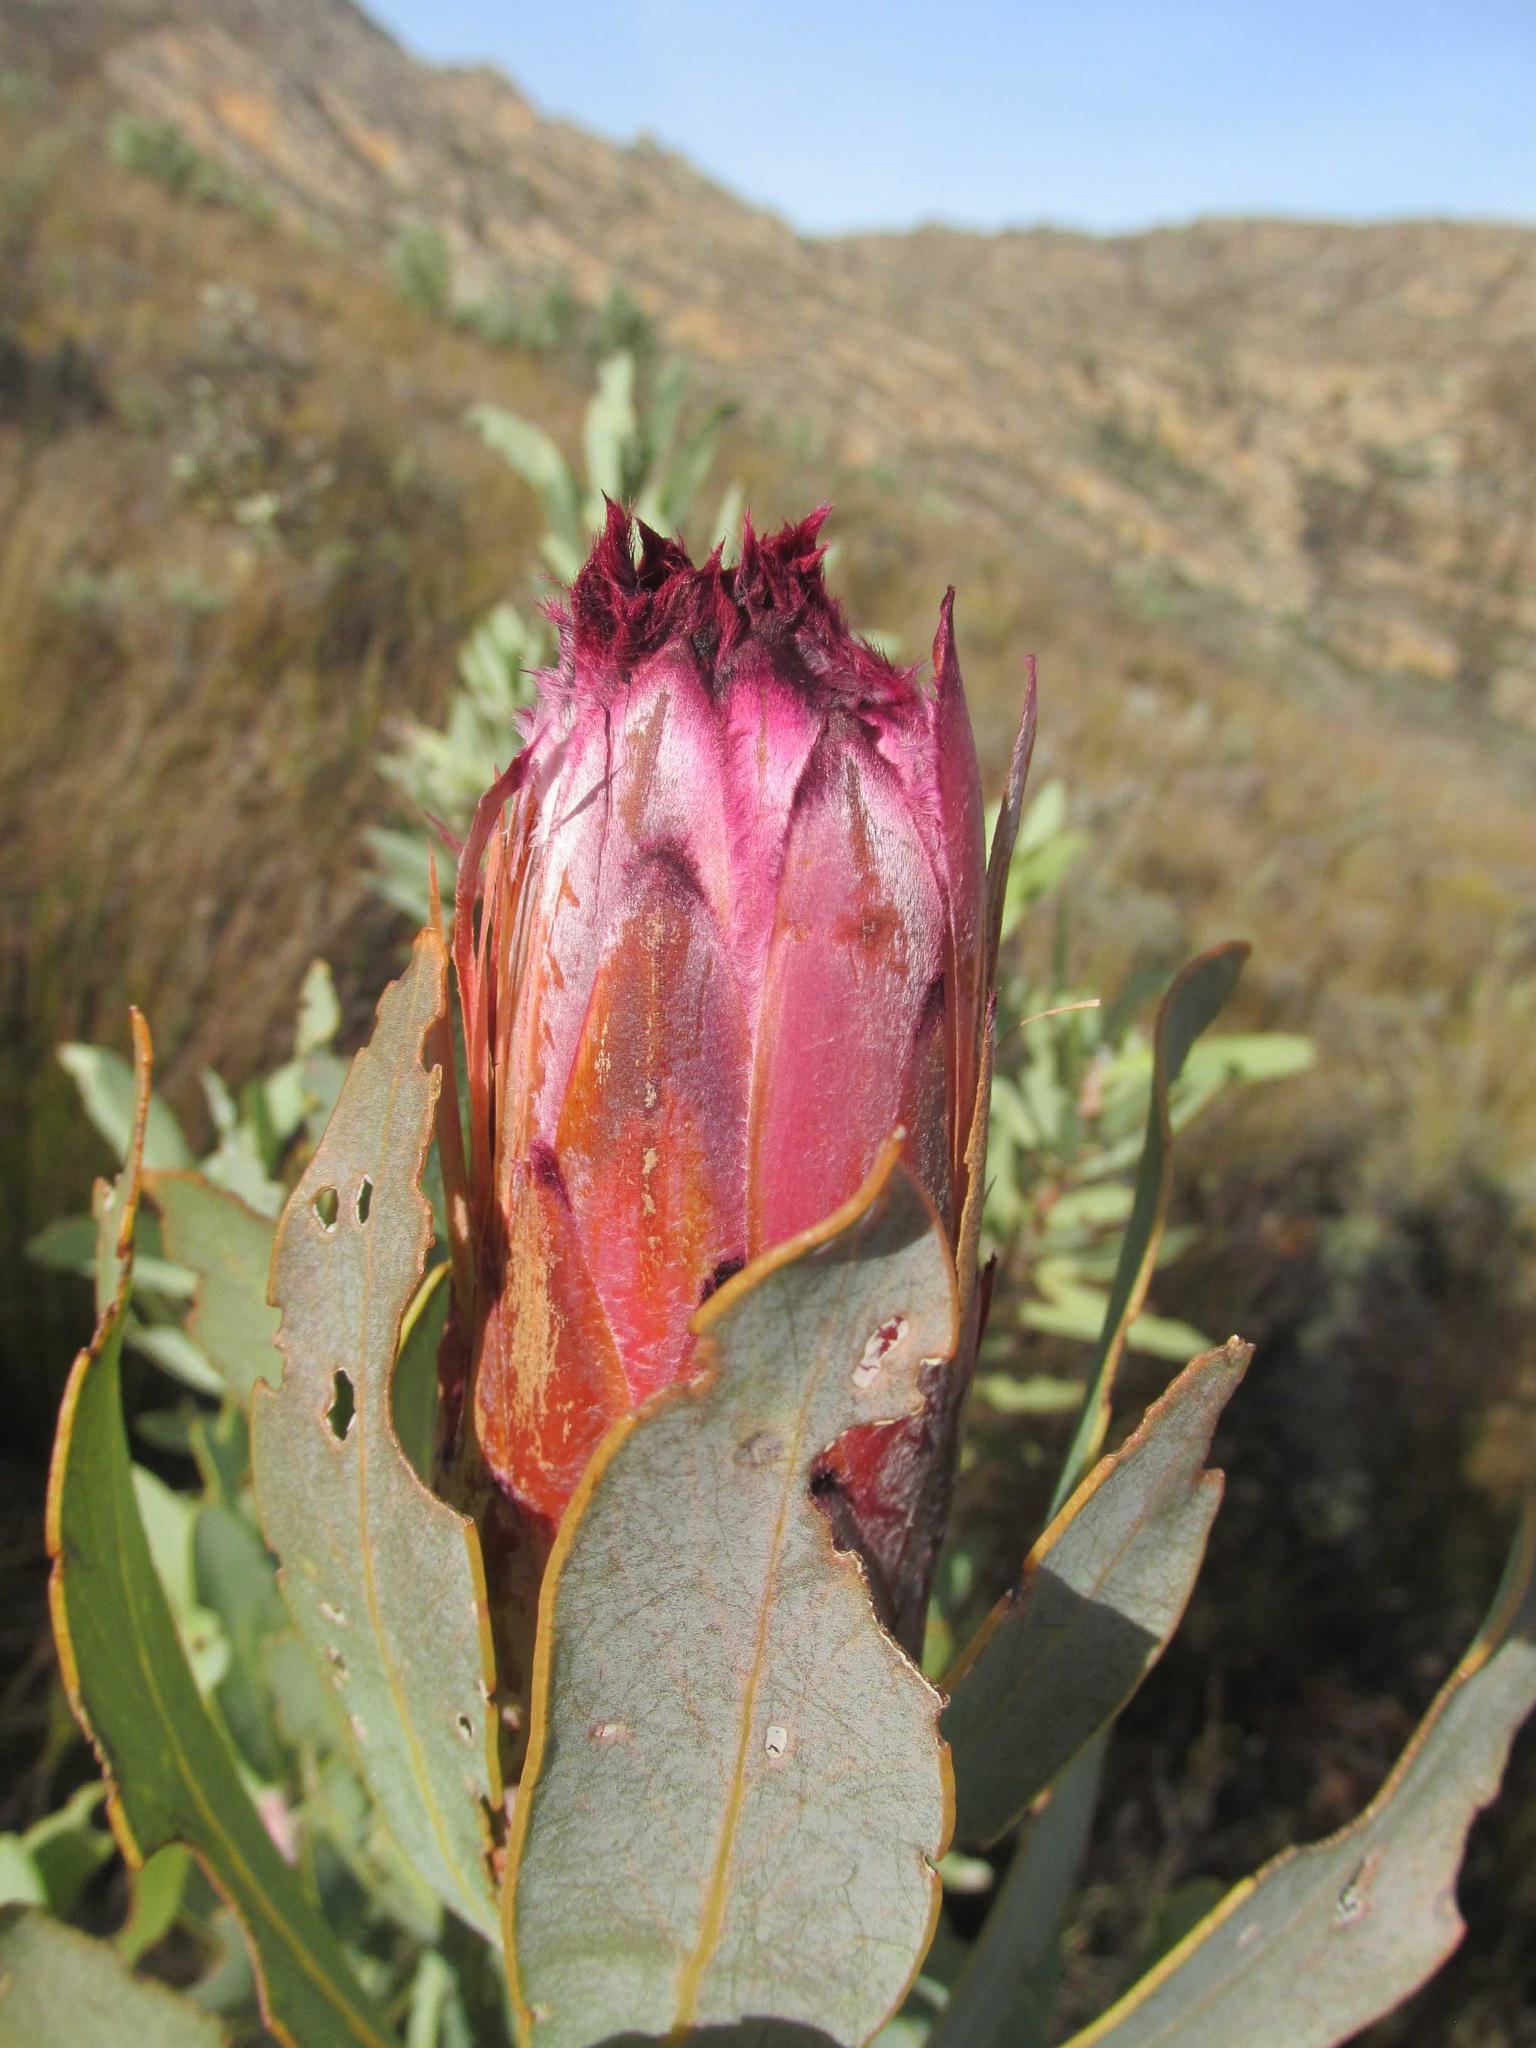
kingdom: Plantae
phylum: Tracheophyta
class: Magnoliopsida
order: Proteales
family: Proteaceae
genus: Protea
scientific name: Protea laurifolia
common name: Grey-leaf sugarbsh
